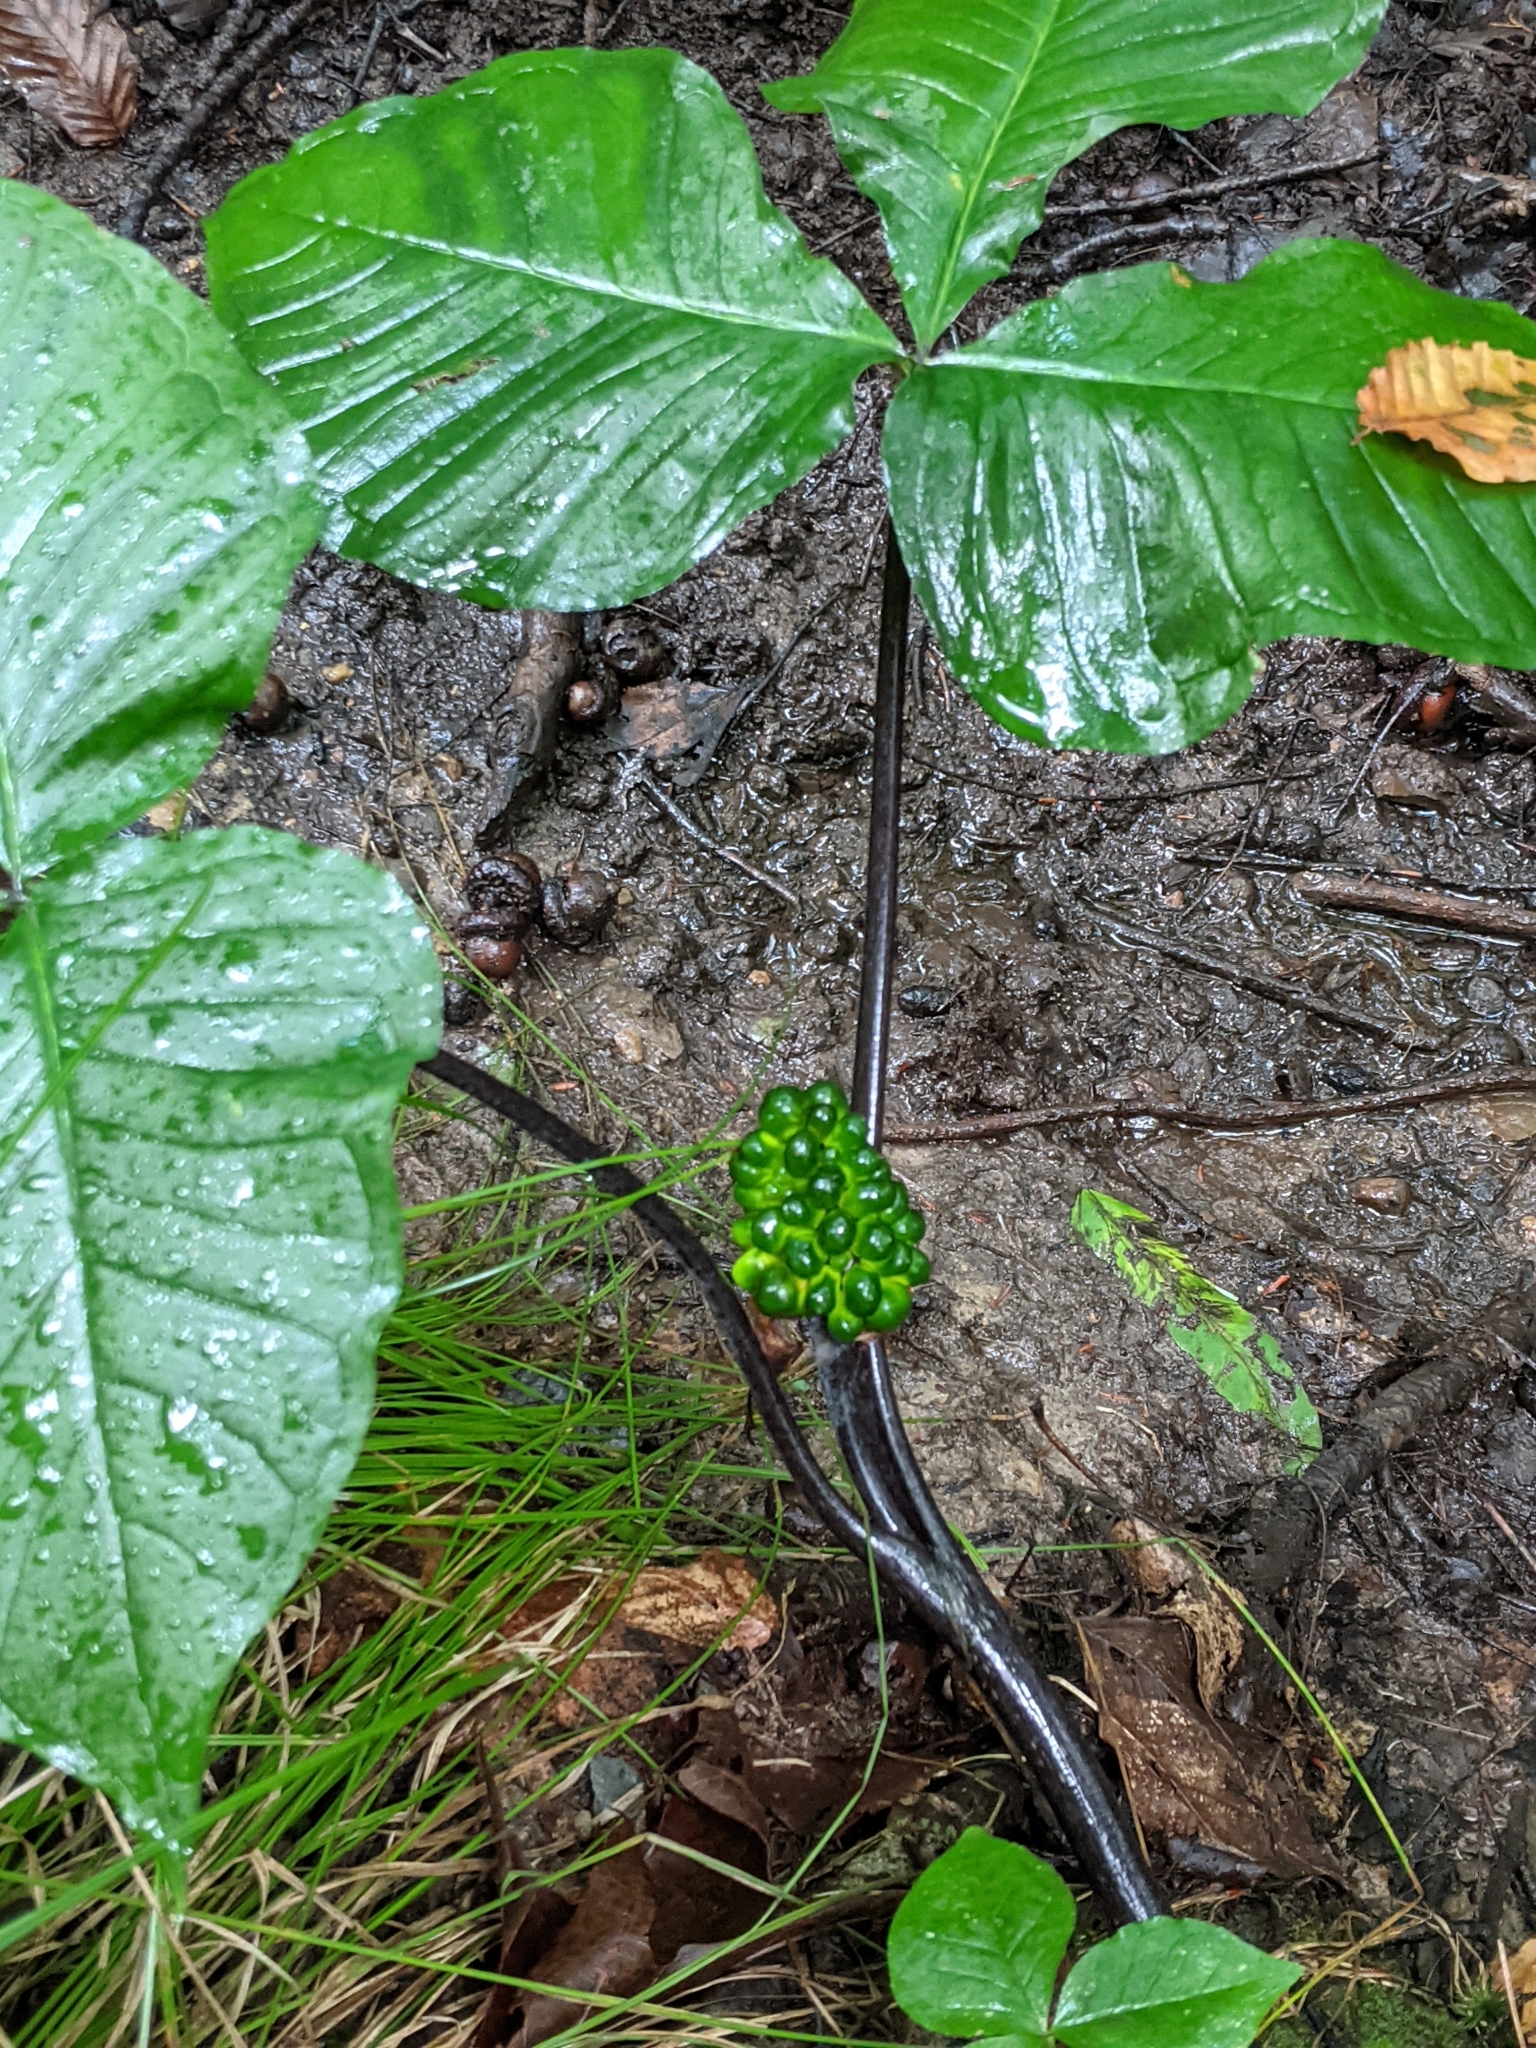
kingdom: Plantae
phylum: Tracheophyta
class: Liliopsida
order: Alismatales
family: Araceae
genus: Arisaema
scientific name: Arisaema triphyllum
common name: Jack-in-the-pulpit
